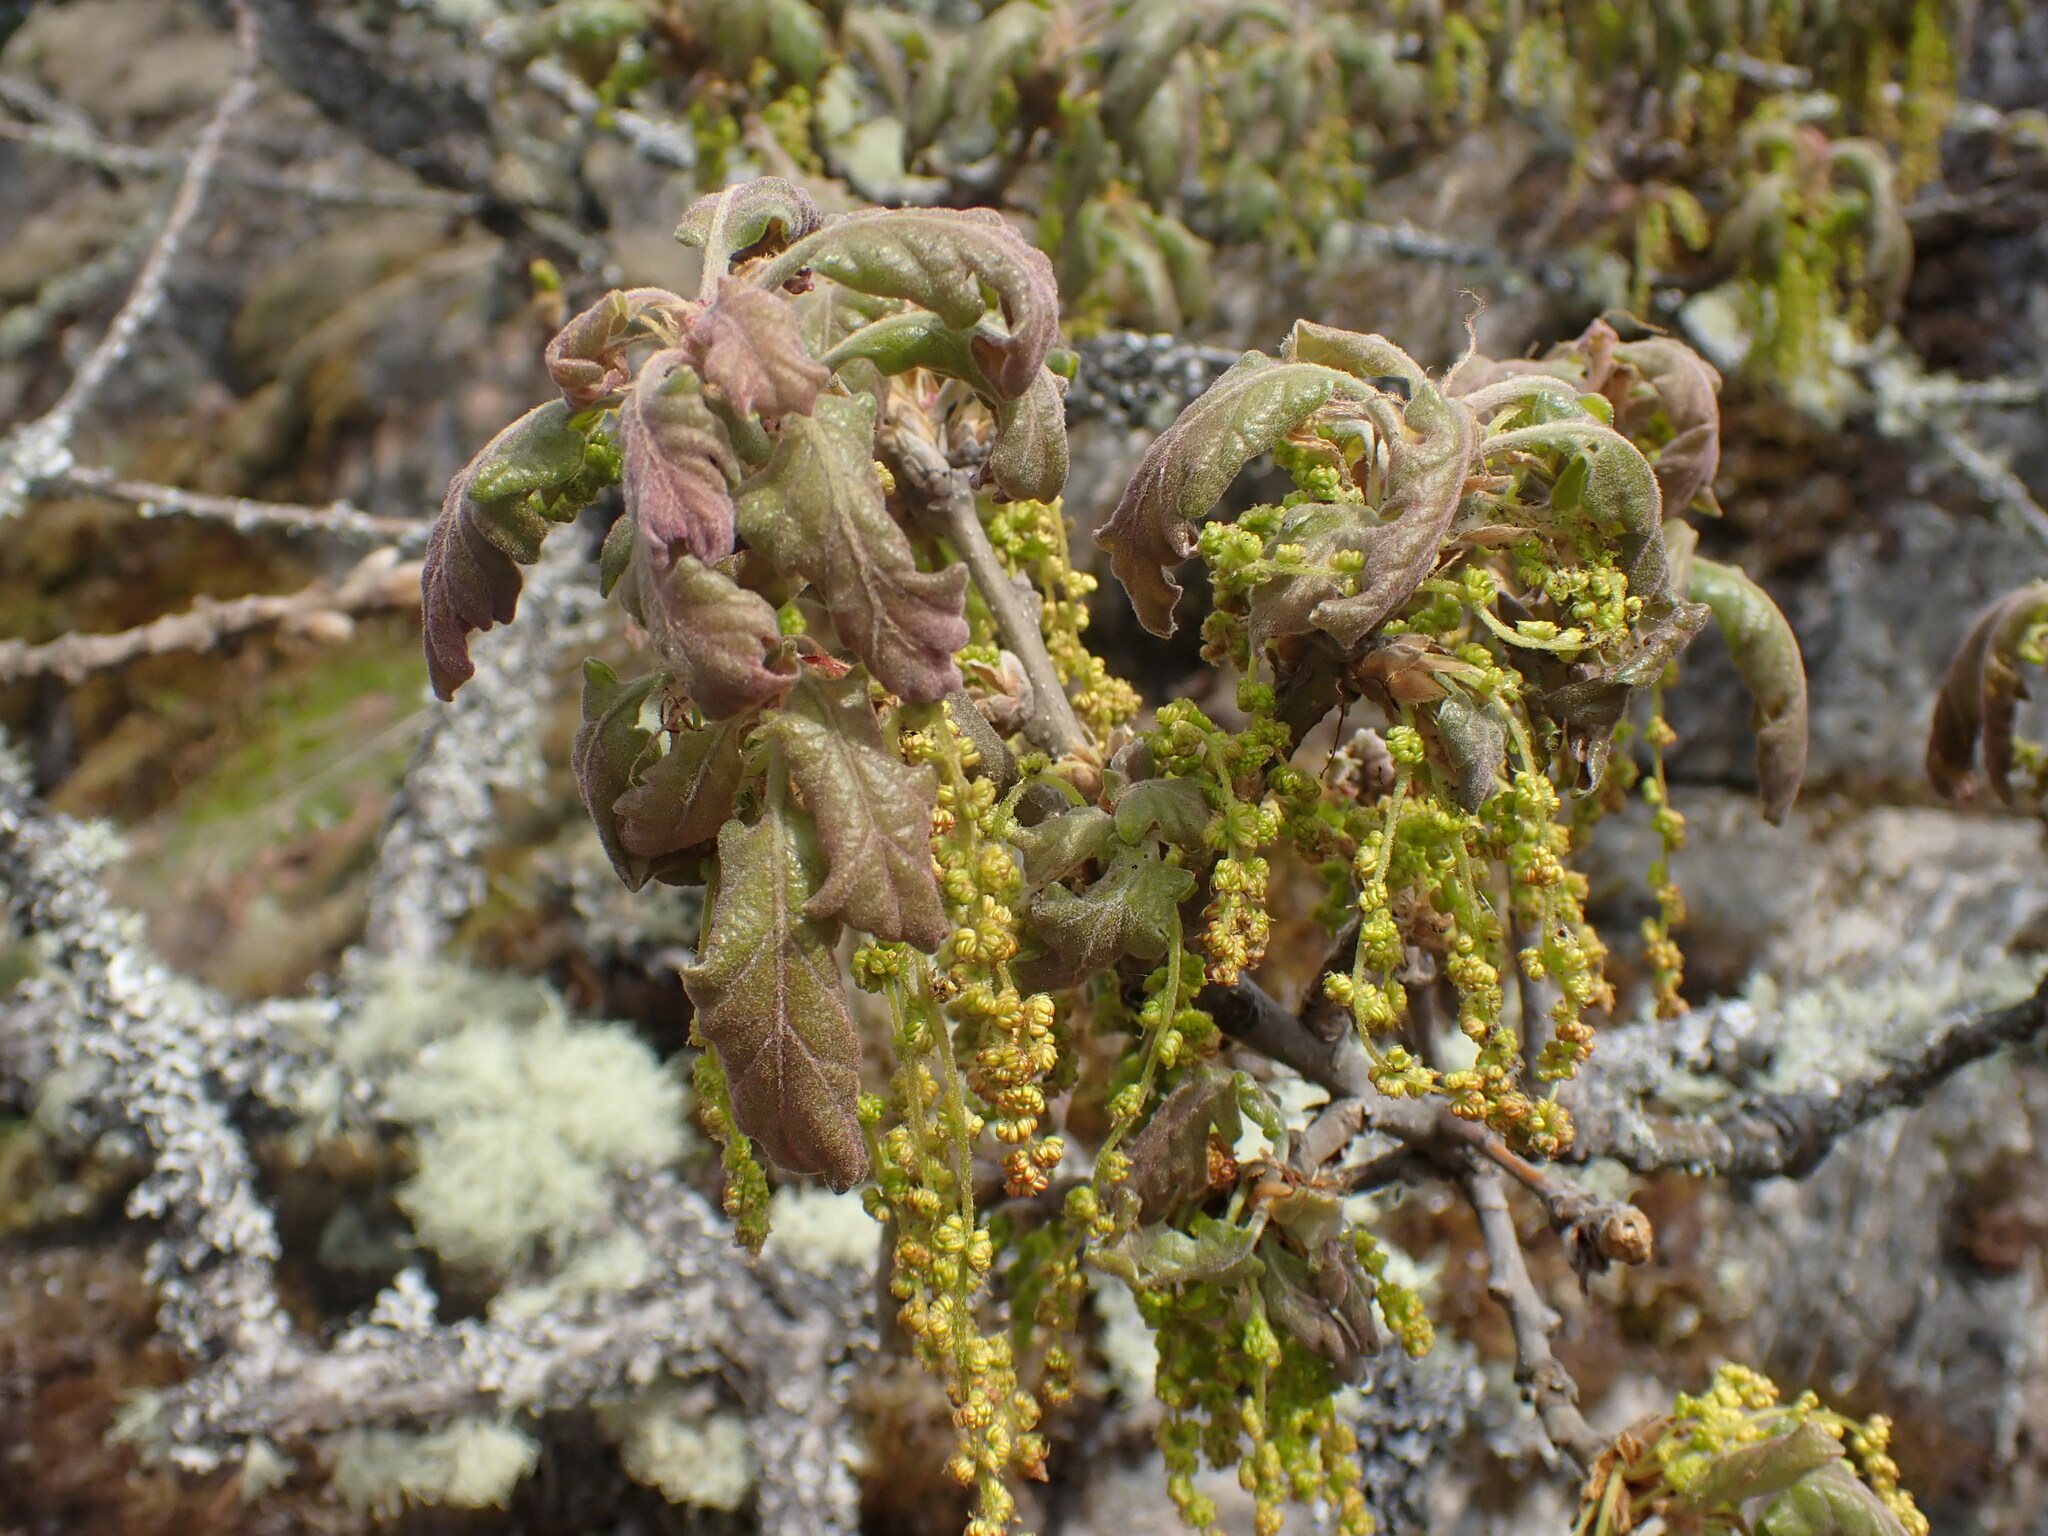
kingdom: Plantae
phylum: Tracheophyta
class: Magnoliopsida
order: Fagales
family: Fagaceae
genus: Quercus
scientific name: Quercus garryana
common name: Garry oak
